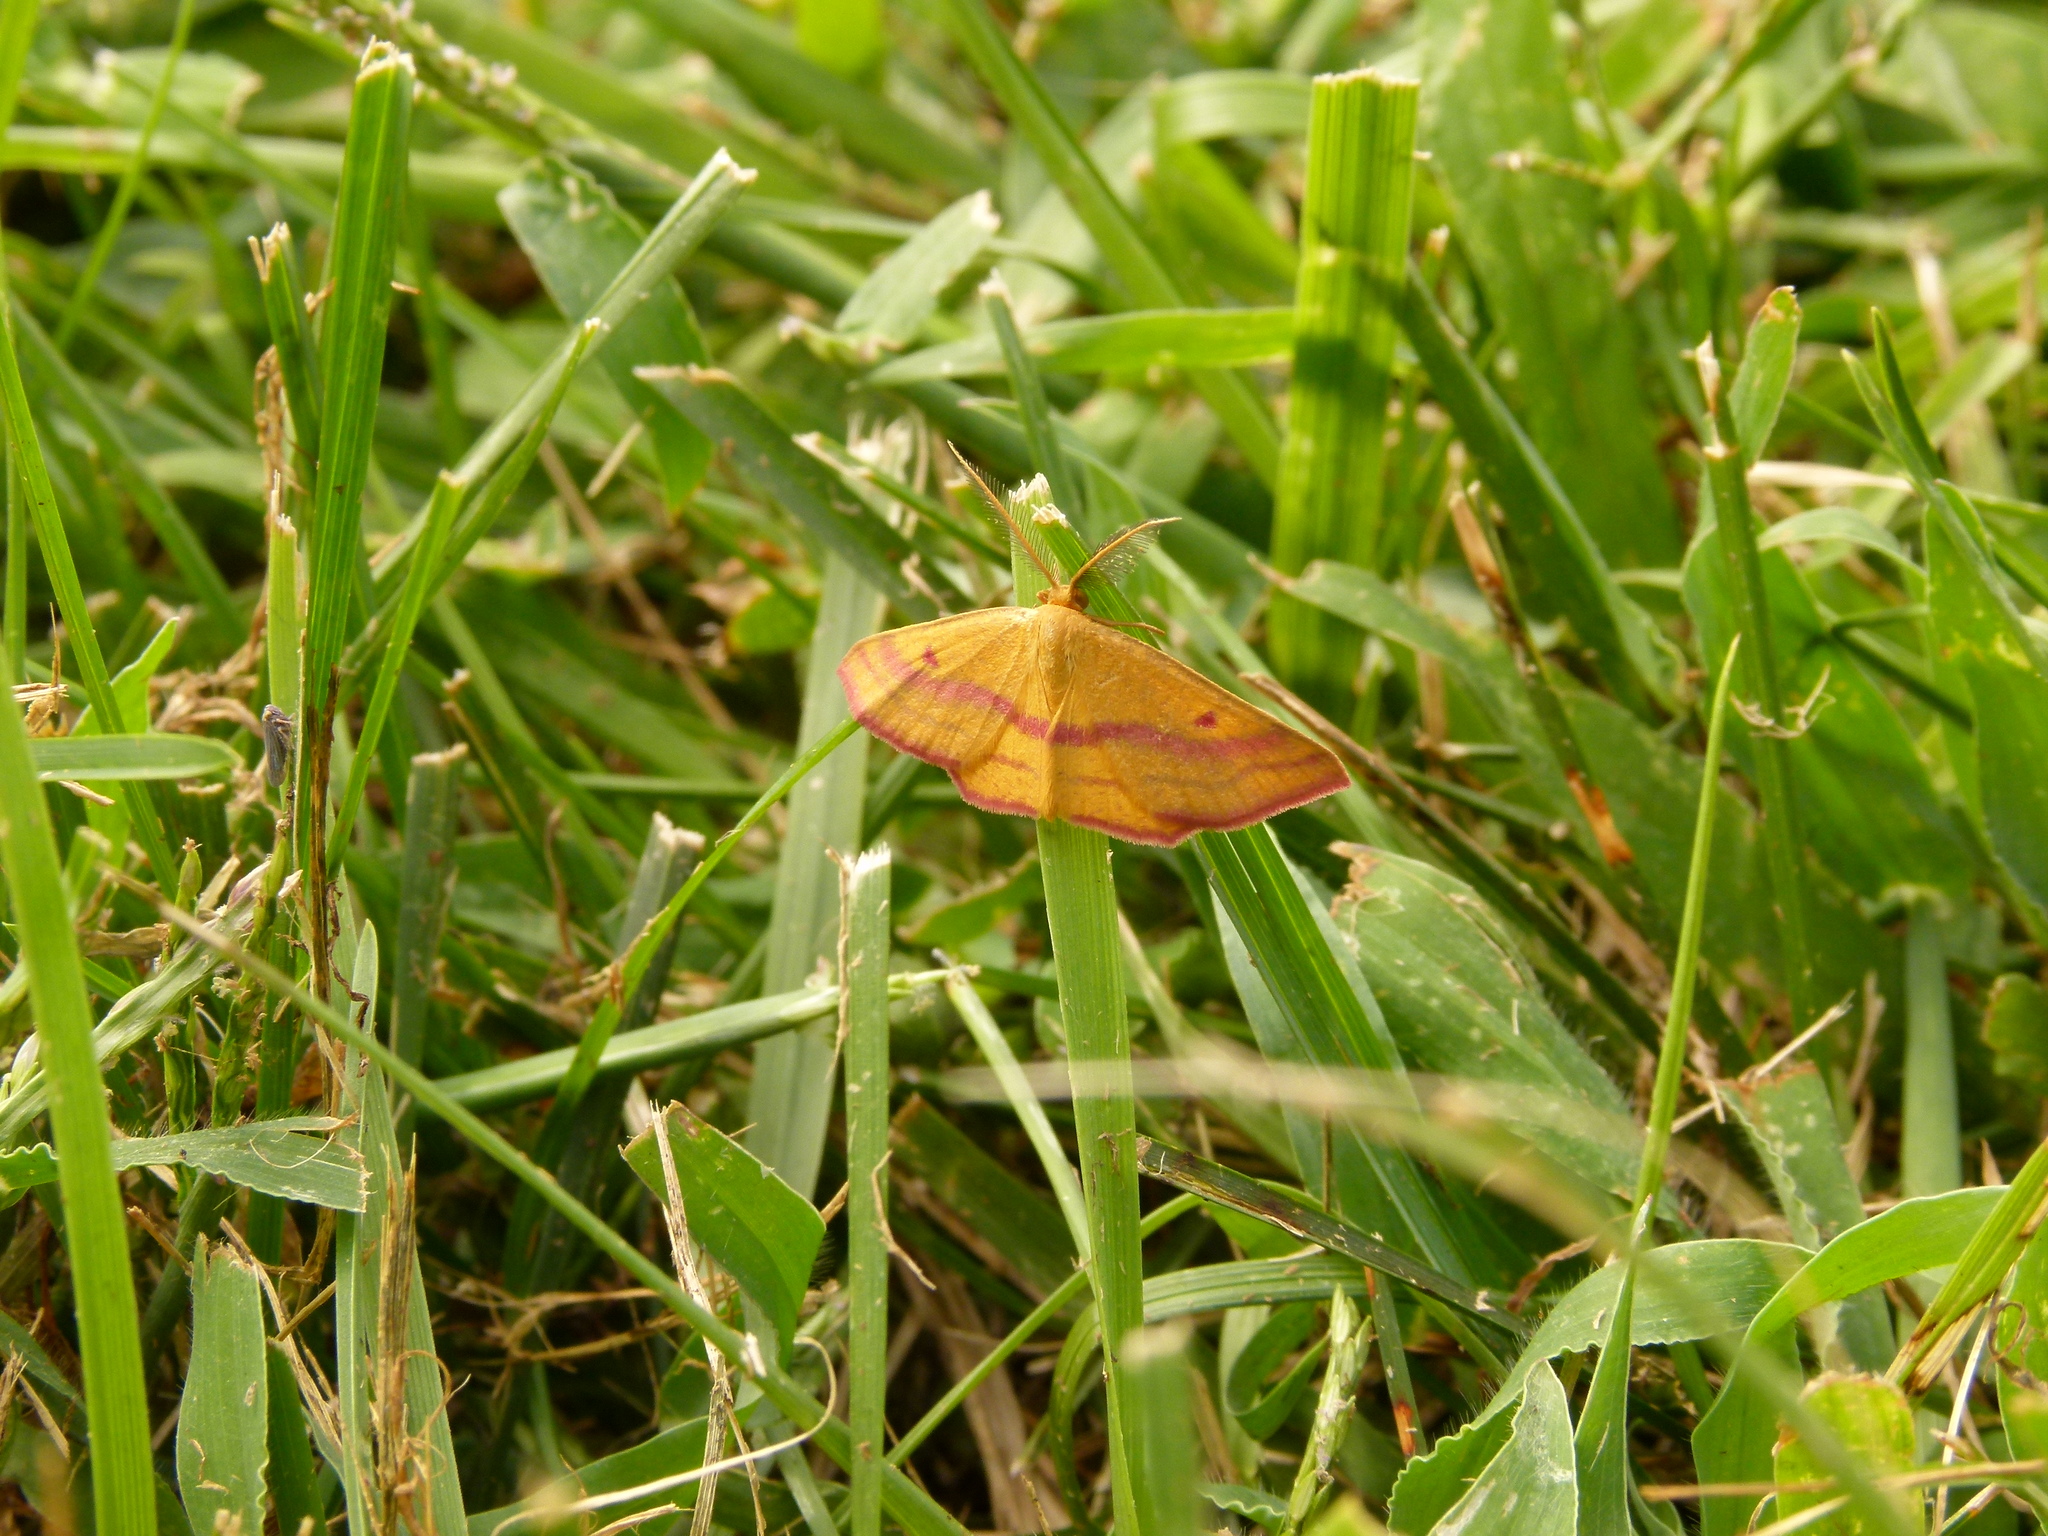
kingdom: Animalia
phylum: Arthropoda
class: Insecta
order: Lepidoptera
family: Geometridae
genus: Haematopis
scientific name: Haematopis grataria
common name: Chickweed geometer
